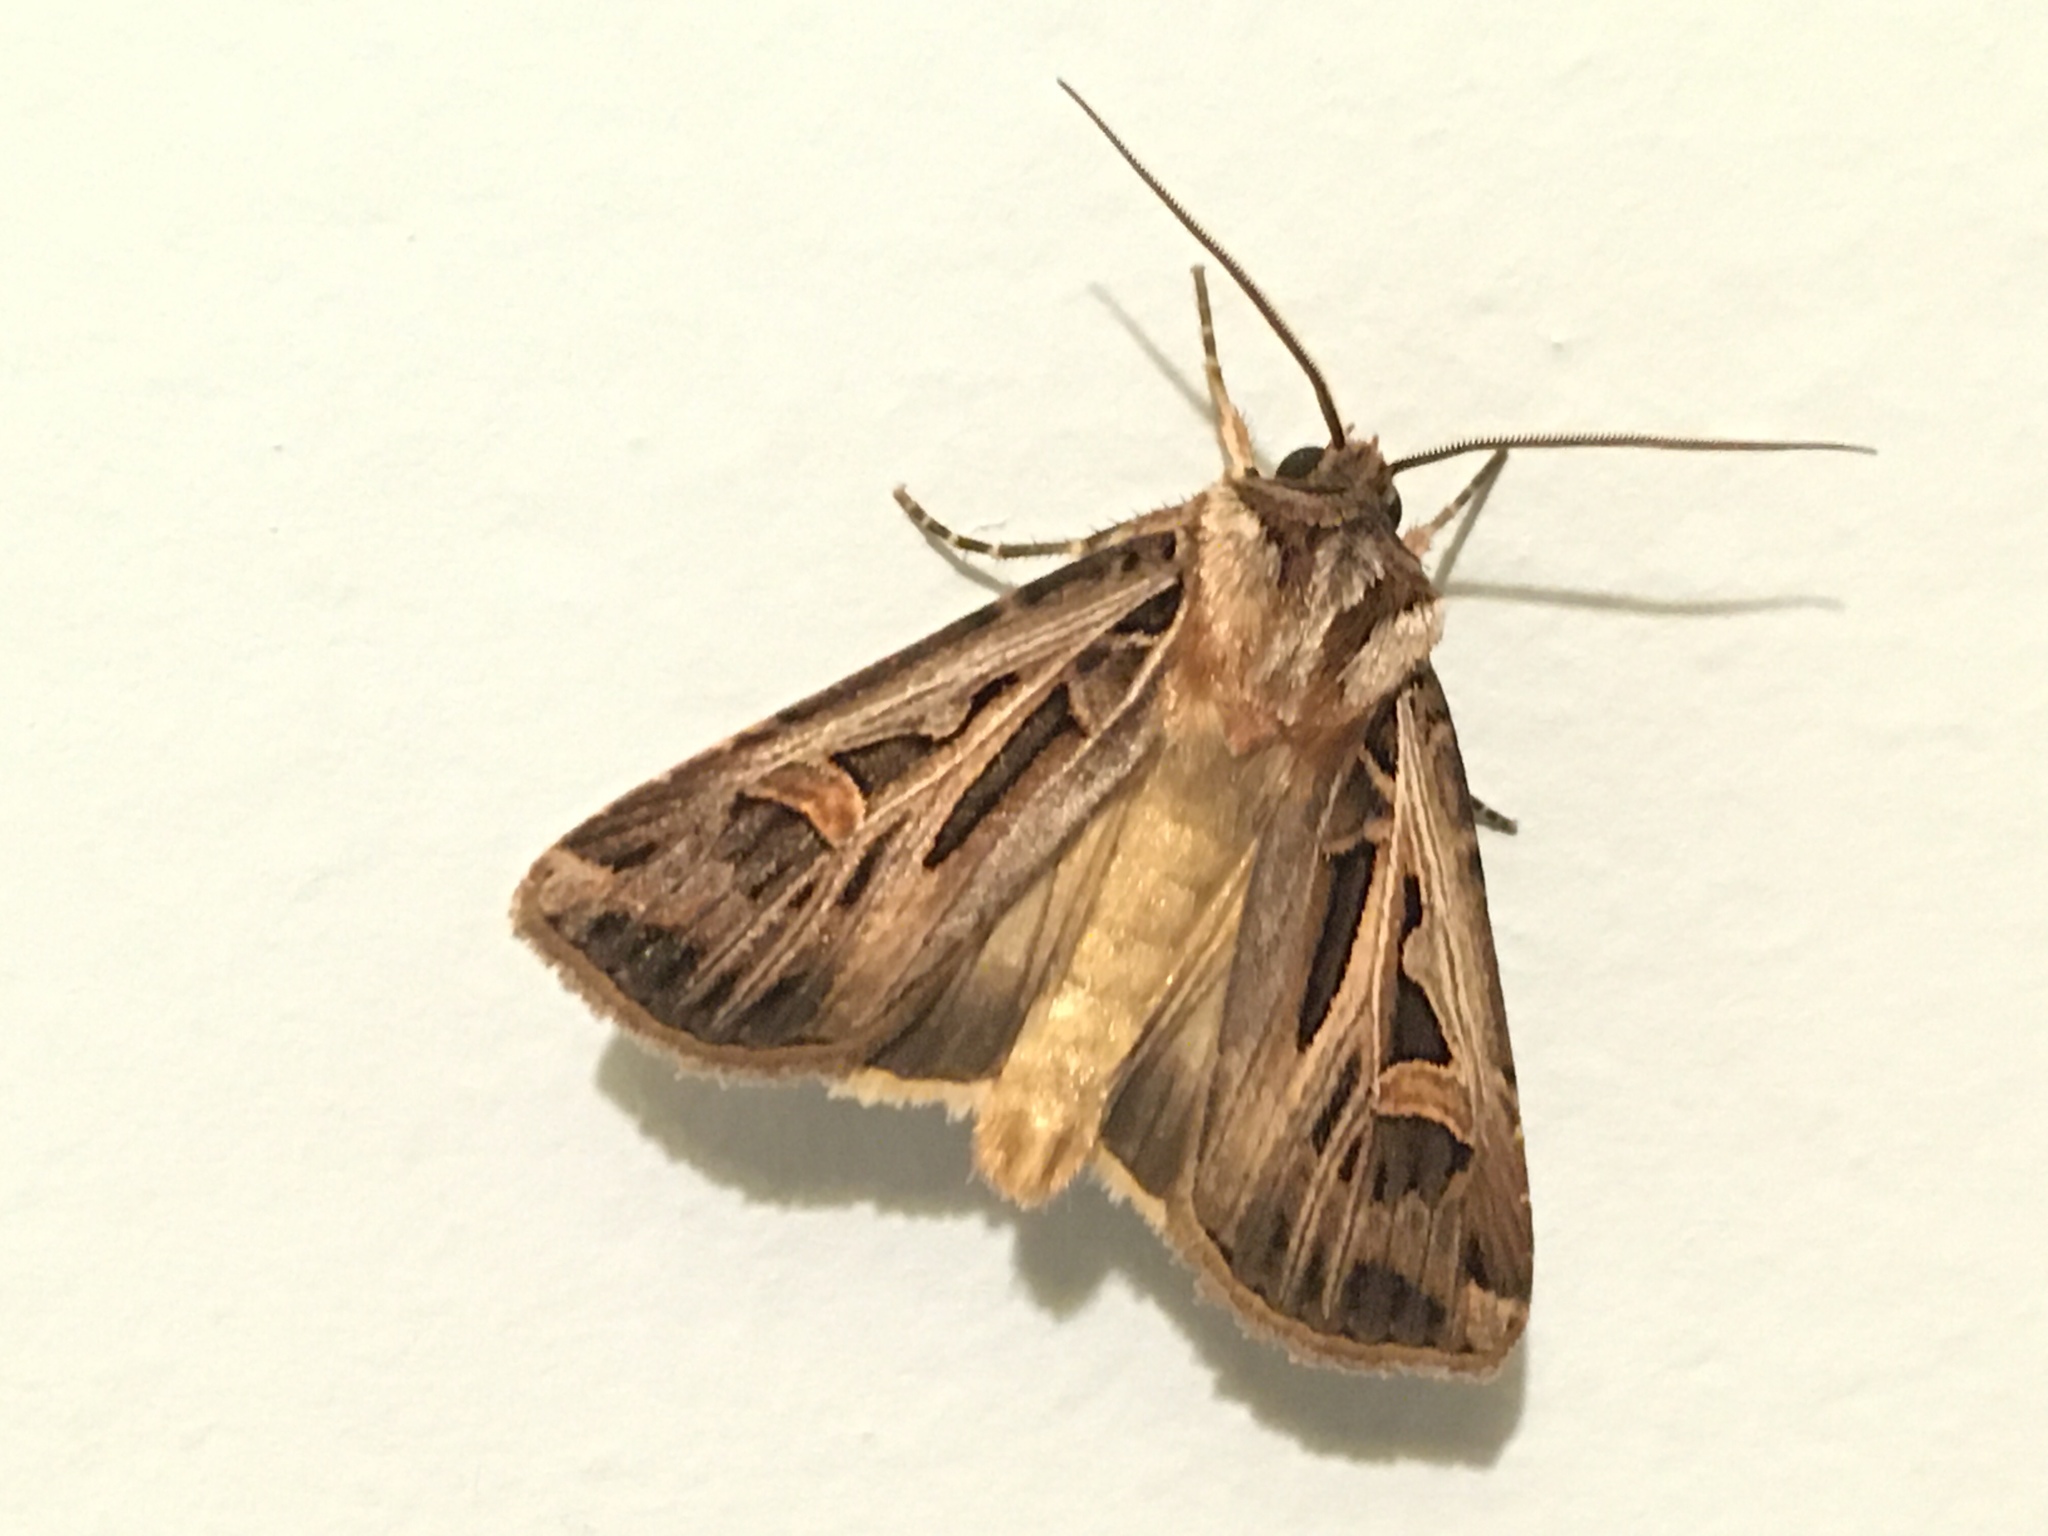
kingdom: Animalia
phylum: Arthropoda
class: Insecta
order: Lepidoptera
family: Noctuidae
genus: Feltia
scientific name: Feltia jaculifera
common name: Dingy cutworm moth
